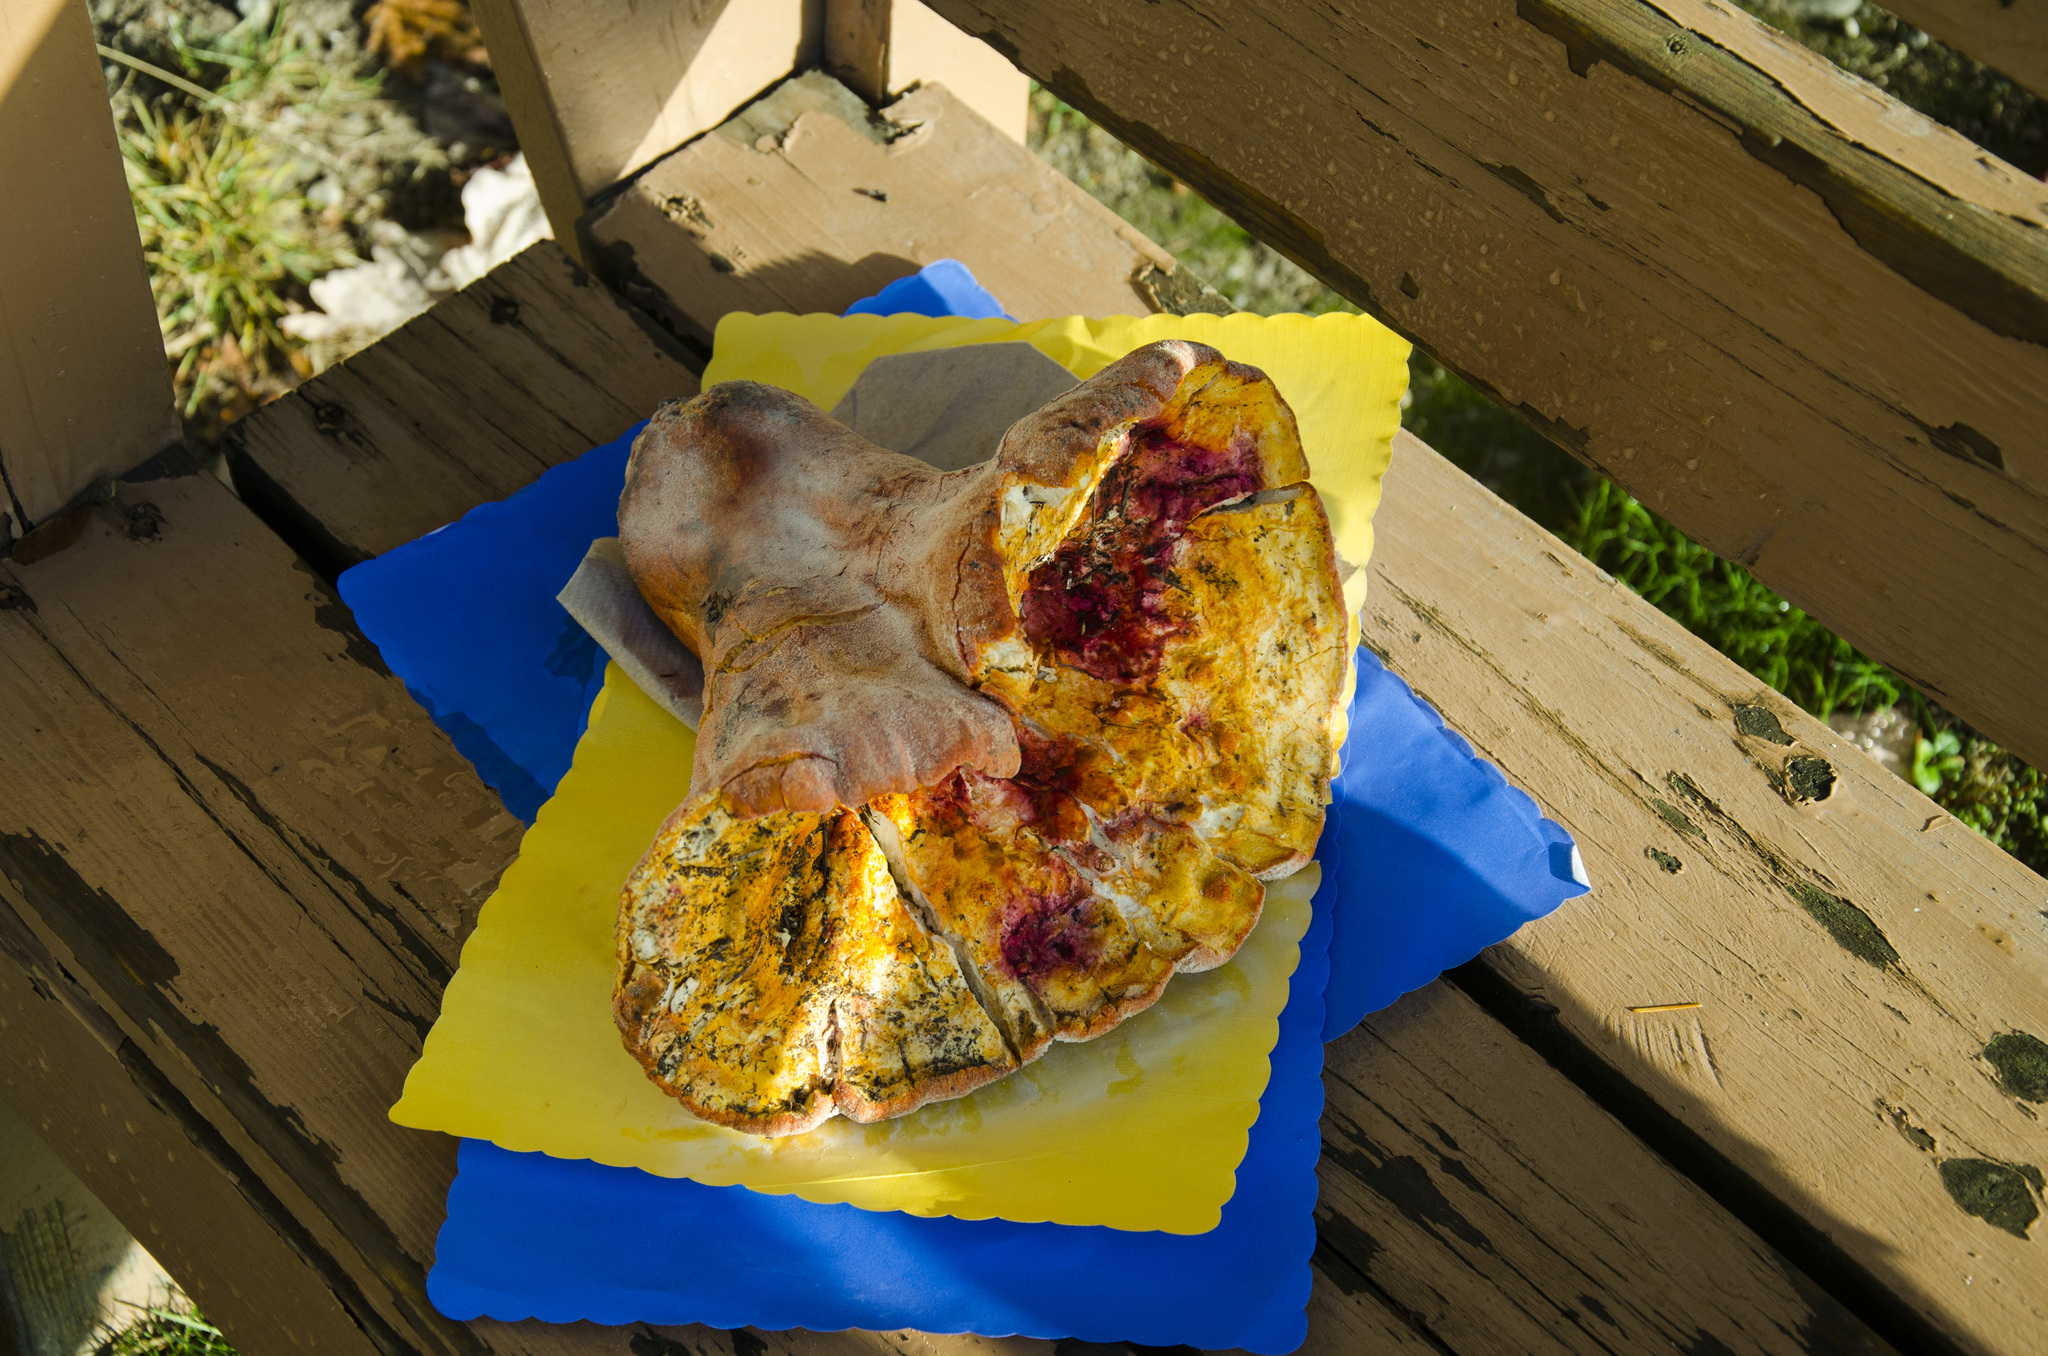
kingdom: Fungi
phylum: Ascomycota
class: Sordariomycetes
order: Hypocreales
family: Hypocreaceae
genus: Hypomyces
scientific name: Hypomyces lactifluorum
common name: Lobster mushroom
